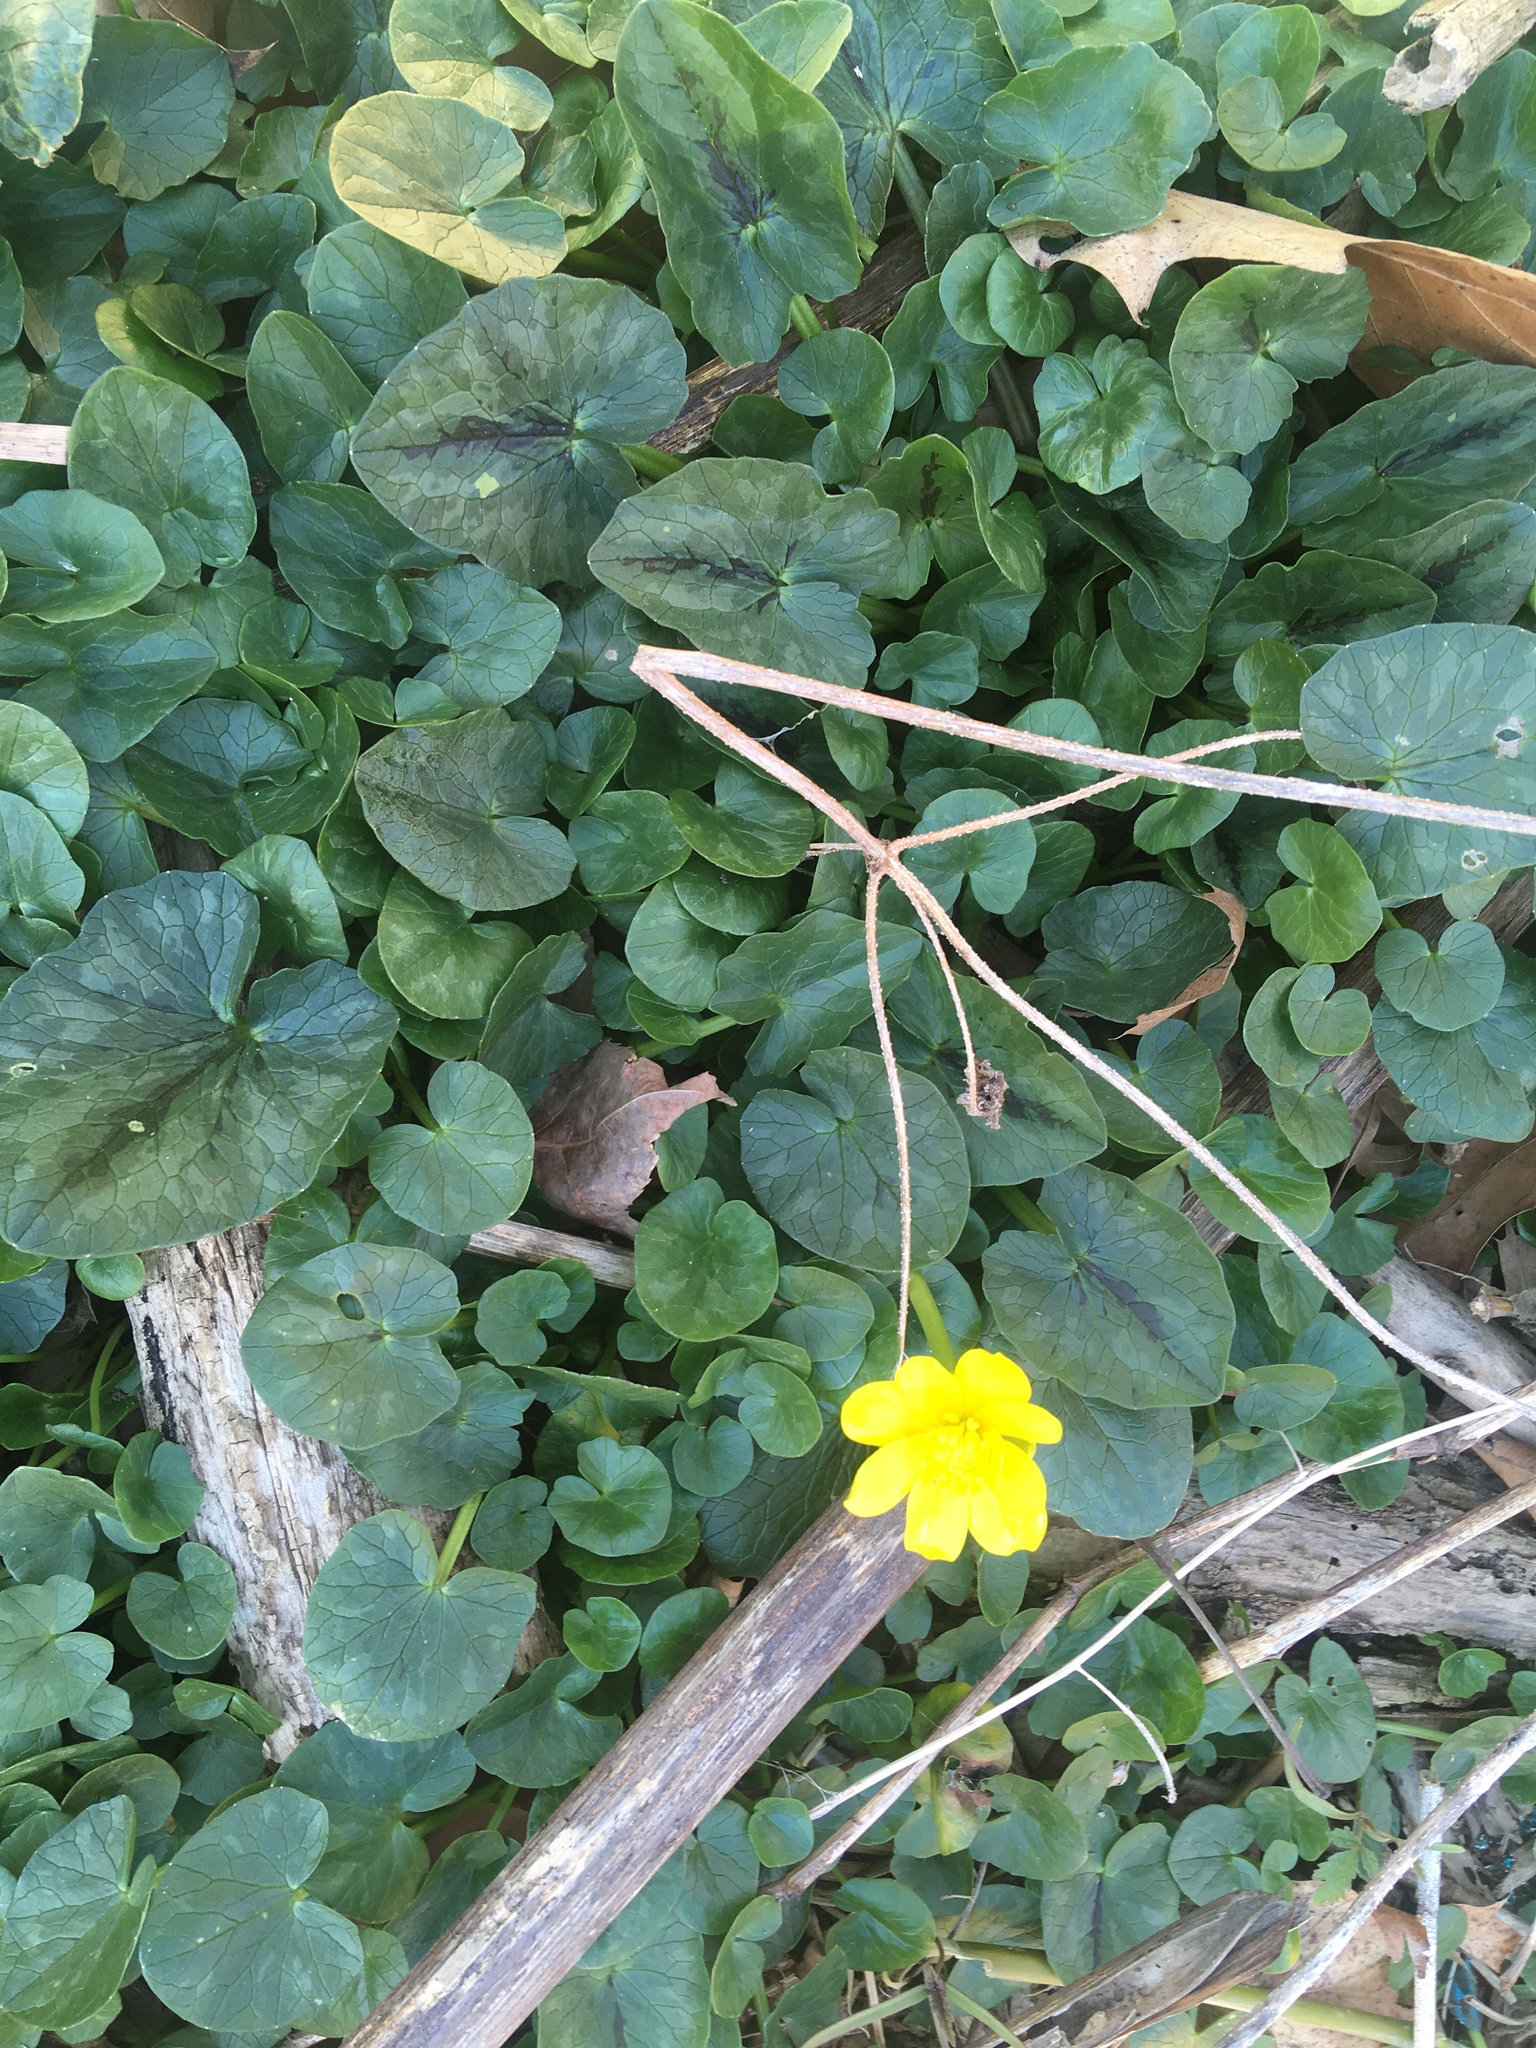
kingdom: Plantae
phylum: Tracheophyta
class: Magnoliopsida
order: Ranunculales
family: Ranunculaceae
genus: Ficaria
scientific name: Ficaria verna
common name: Lesser celandine
